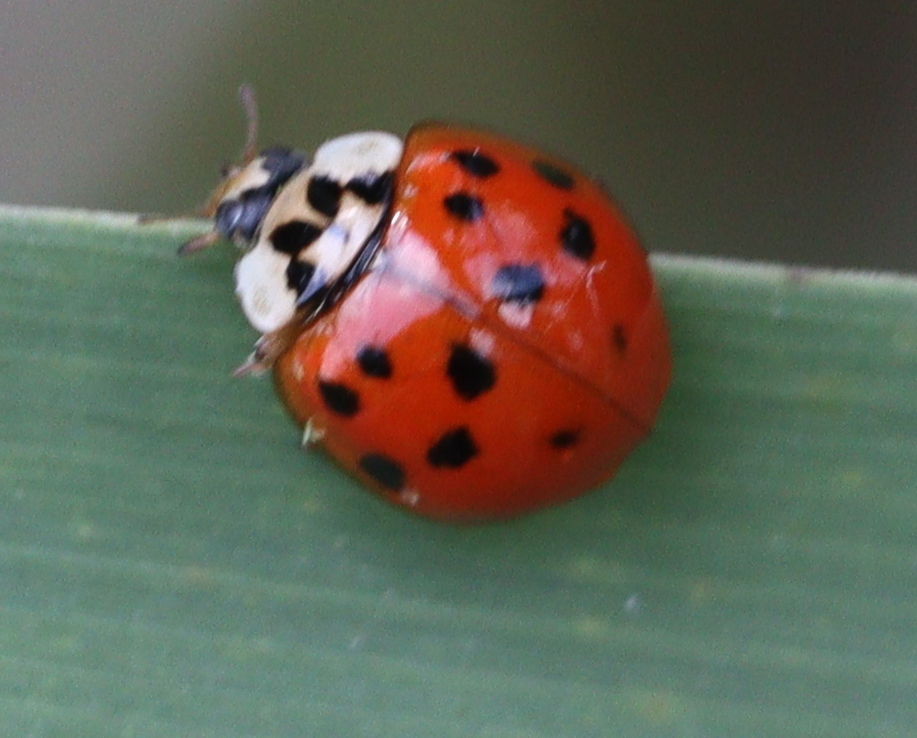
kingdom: Animalia
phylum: Arthropoda
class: Insecta
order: Coleoptera
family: Coccinellidae
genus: Harmonia
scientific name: Harmonia axyridis
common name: Harlequin ladybird
